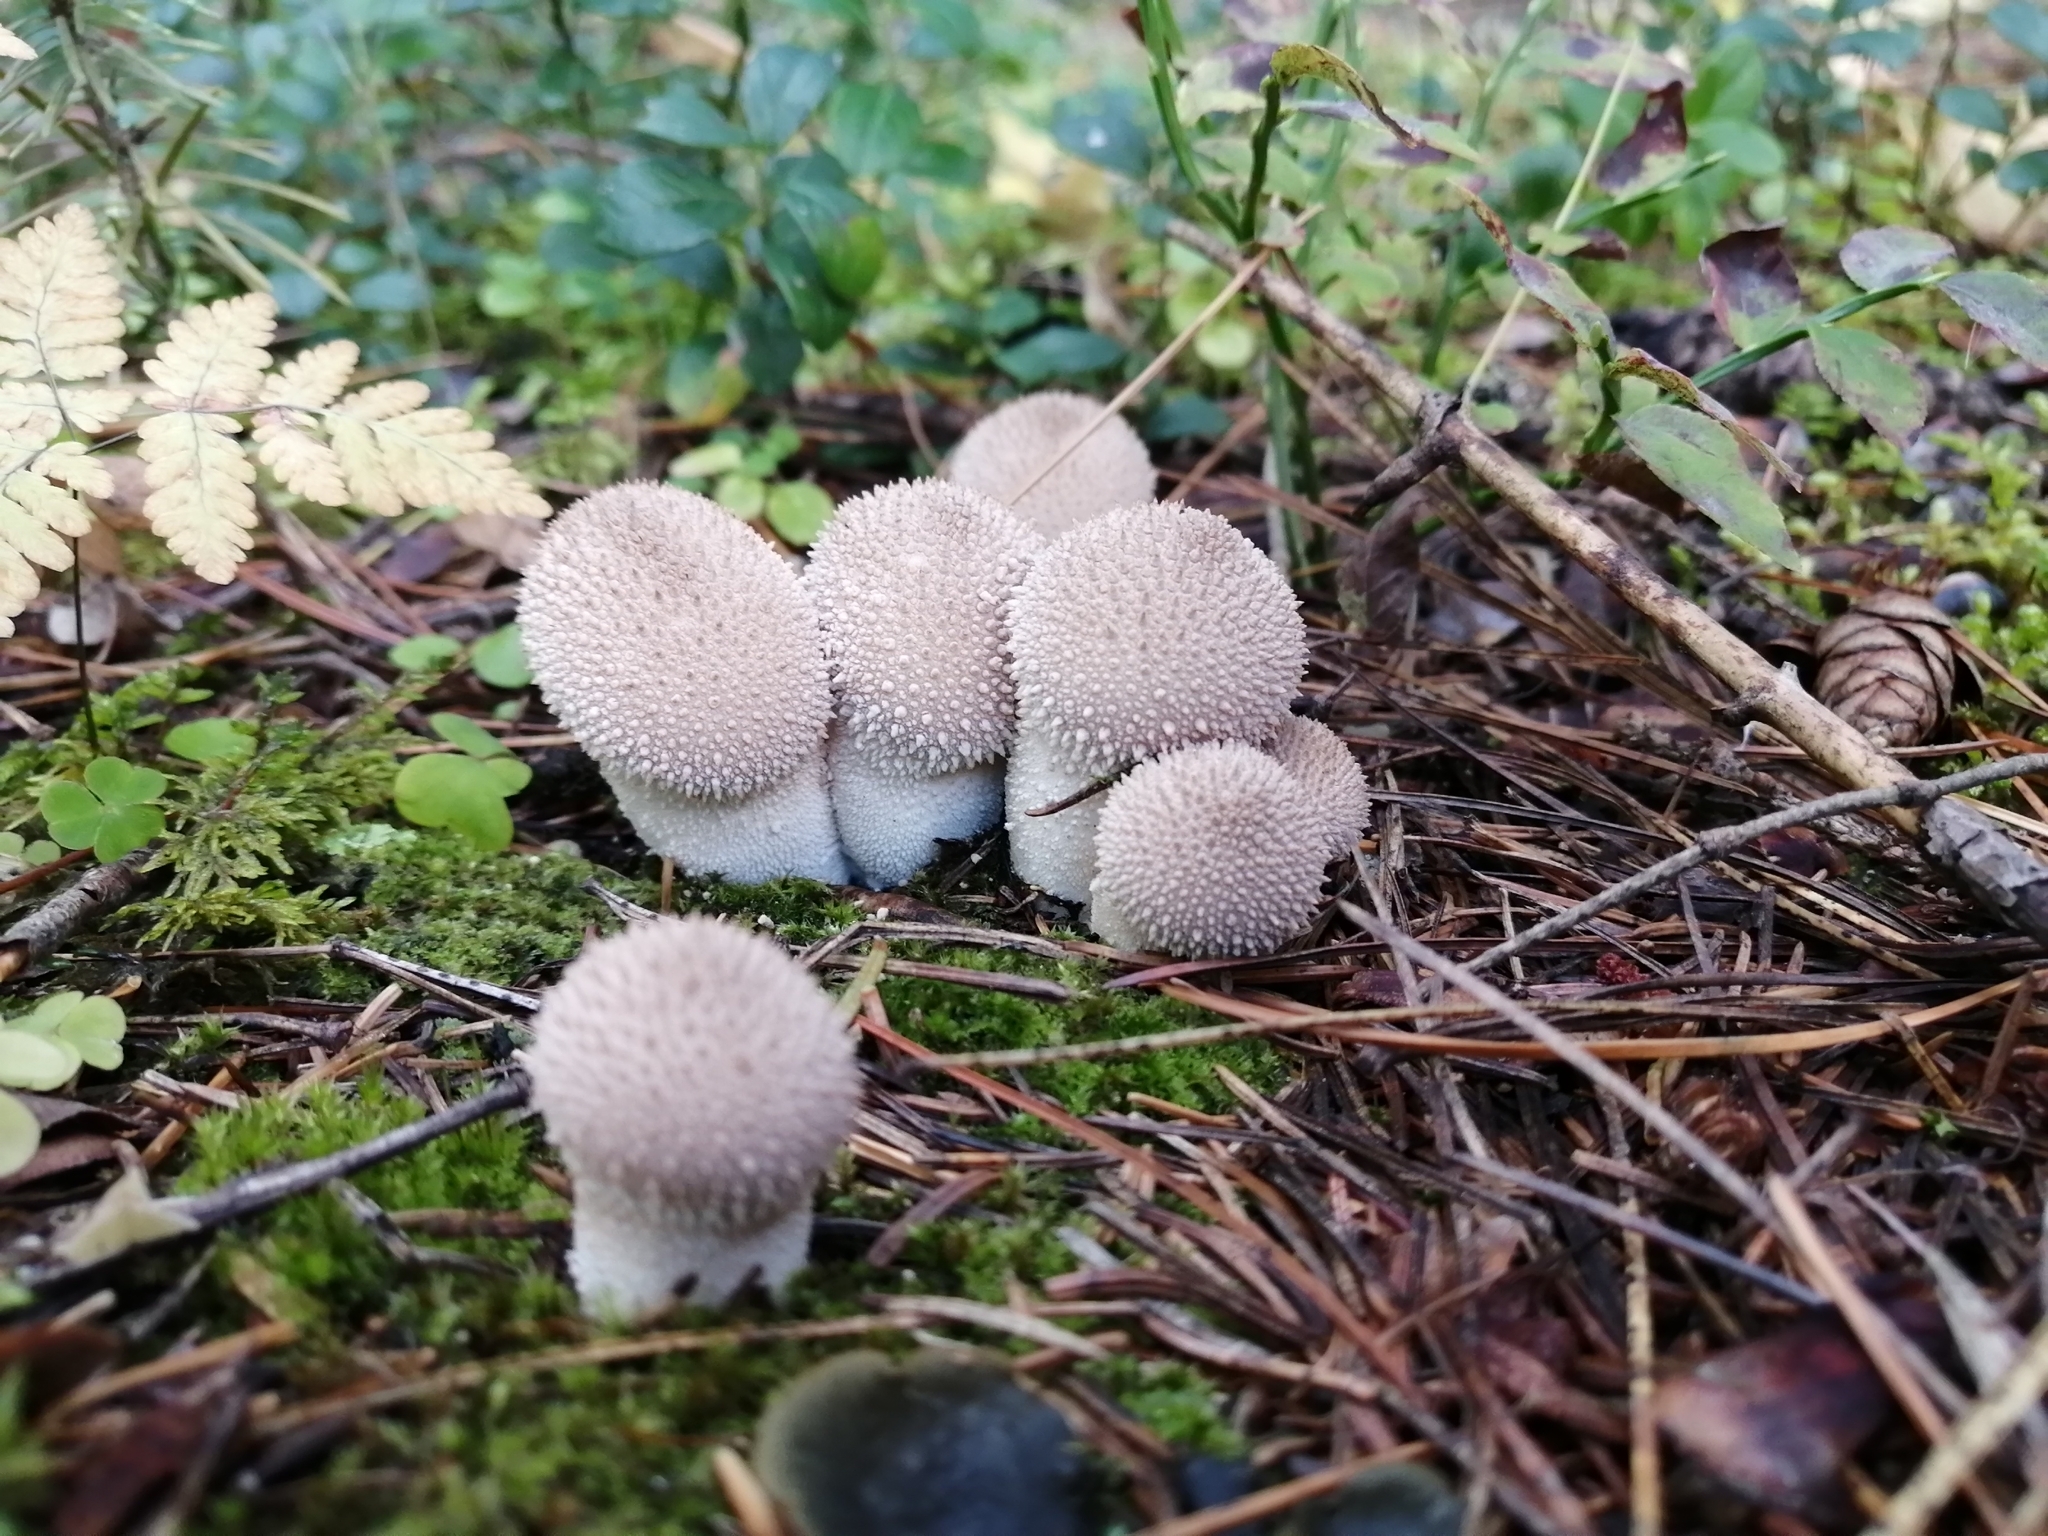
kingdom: Fungi
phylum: Basidiomycota
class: Agaricomycetes
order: Agaricales
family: Lycoperdaceae
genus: Lycoperdon
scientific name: Lycoperdon perlatum
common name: Common puffball
